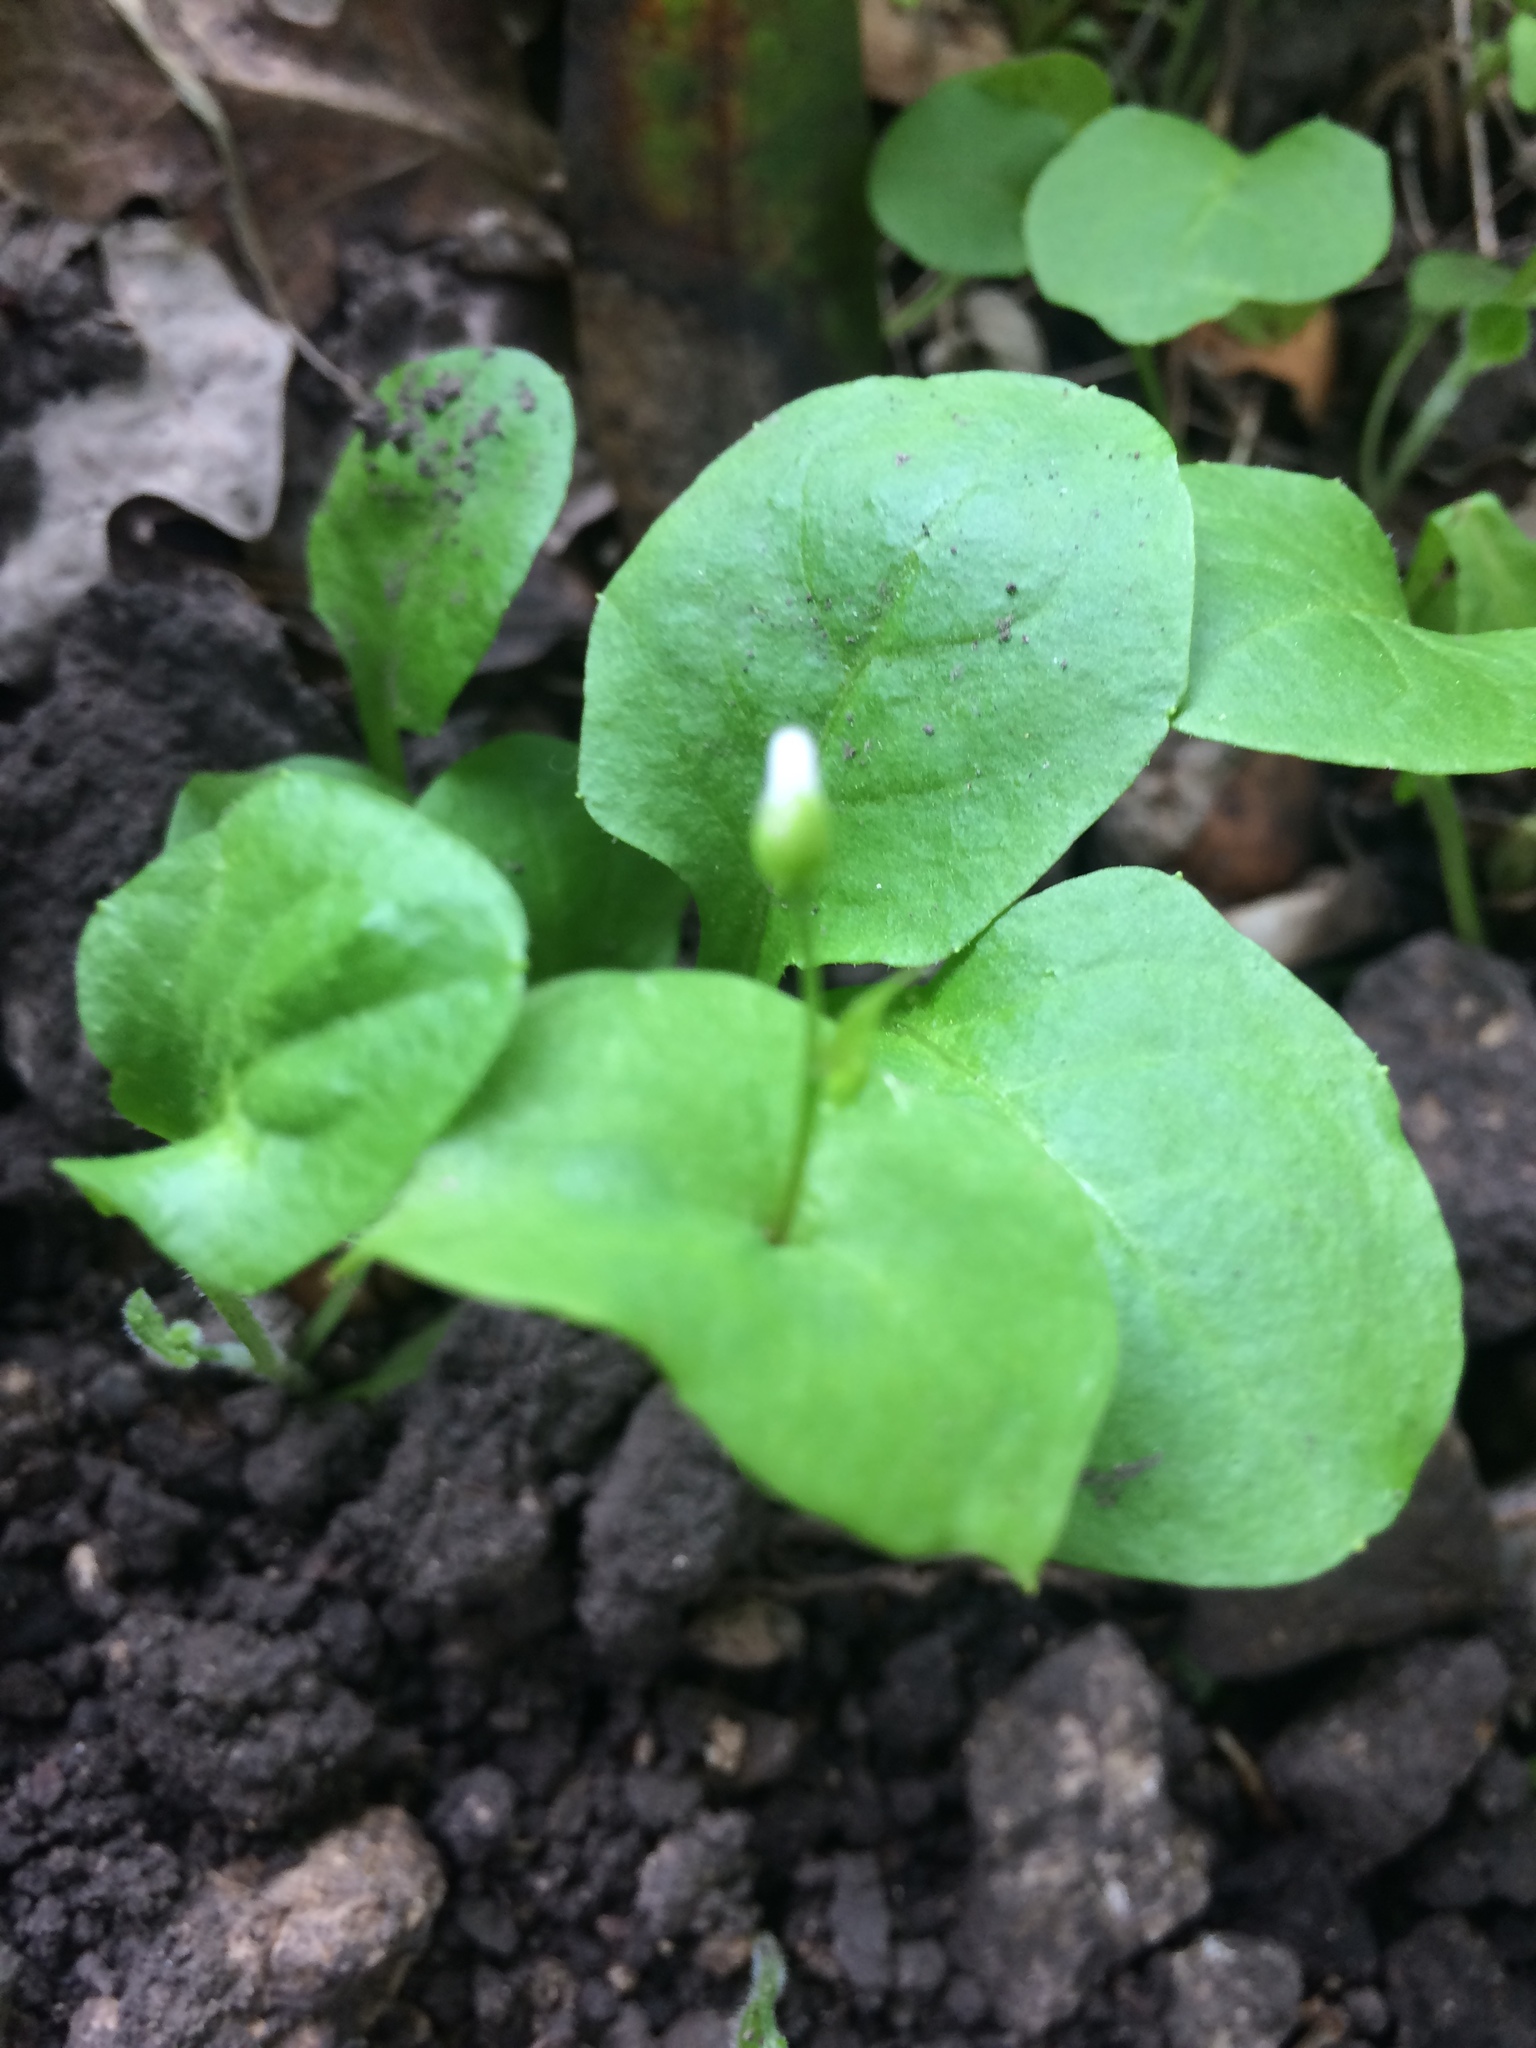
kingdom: Plantae
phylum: Tracheophyta
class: Magnoliopsida
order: Caryophyllales
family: Montiaceae
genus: Claytonia
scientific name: Claytonia perfoliata
